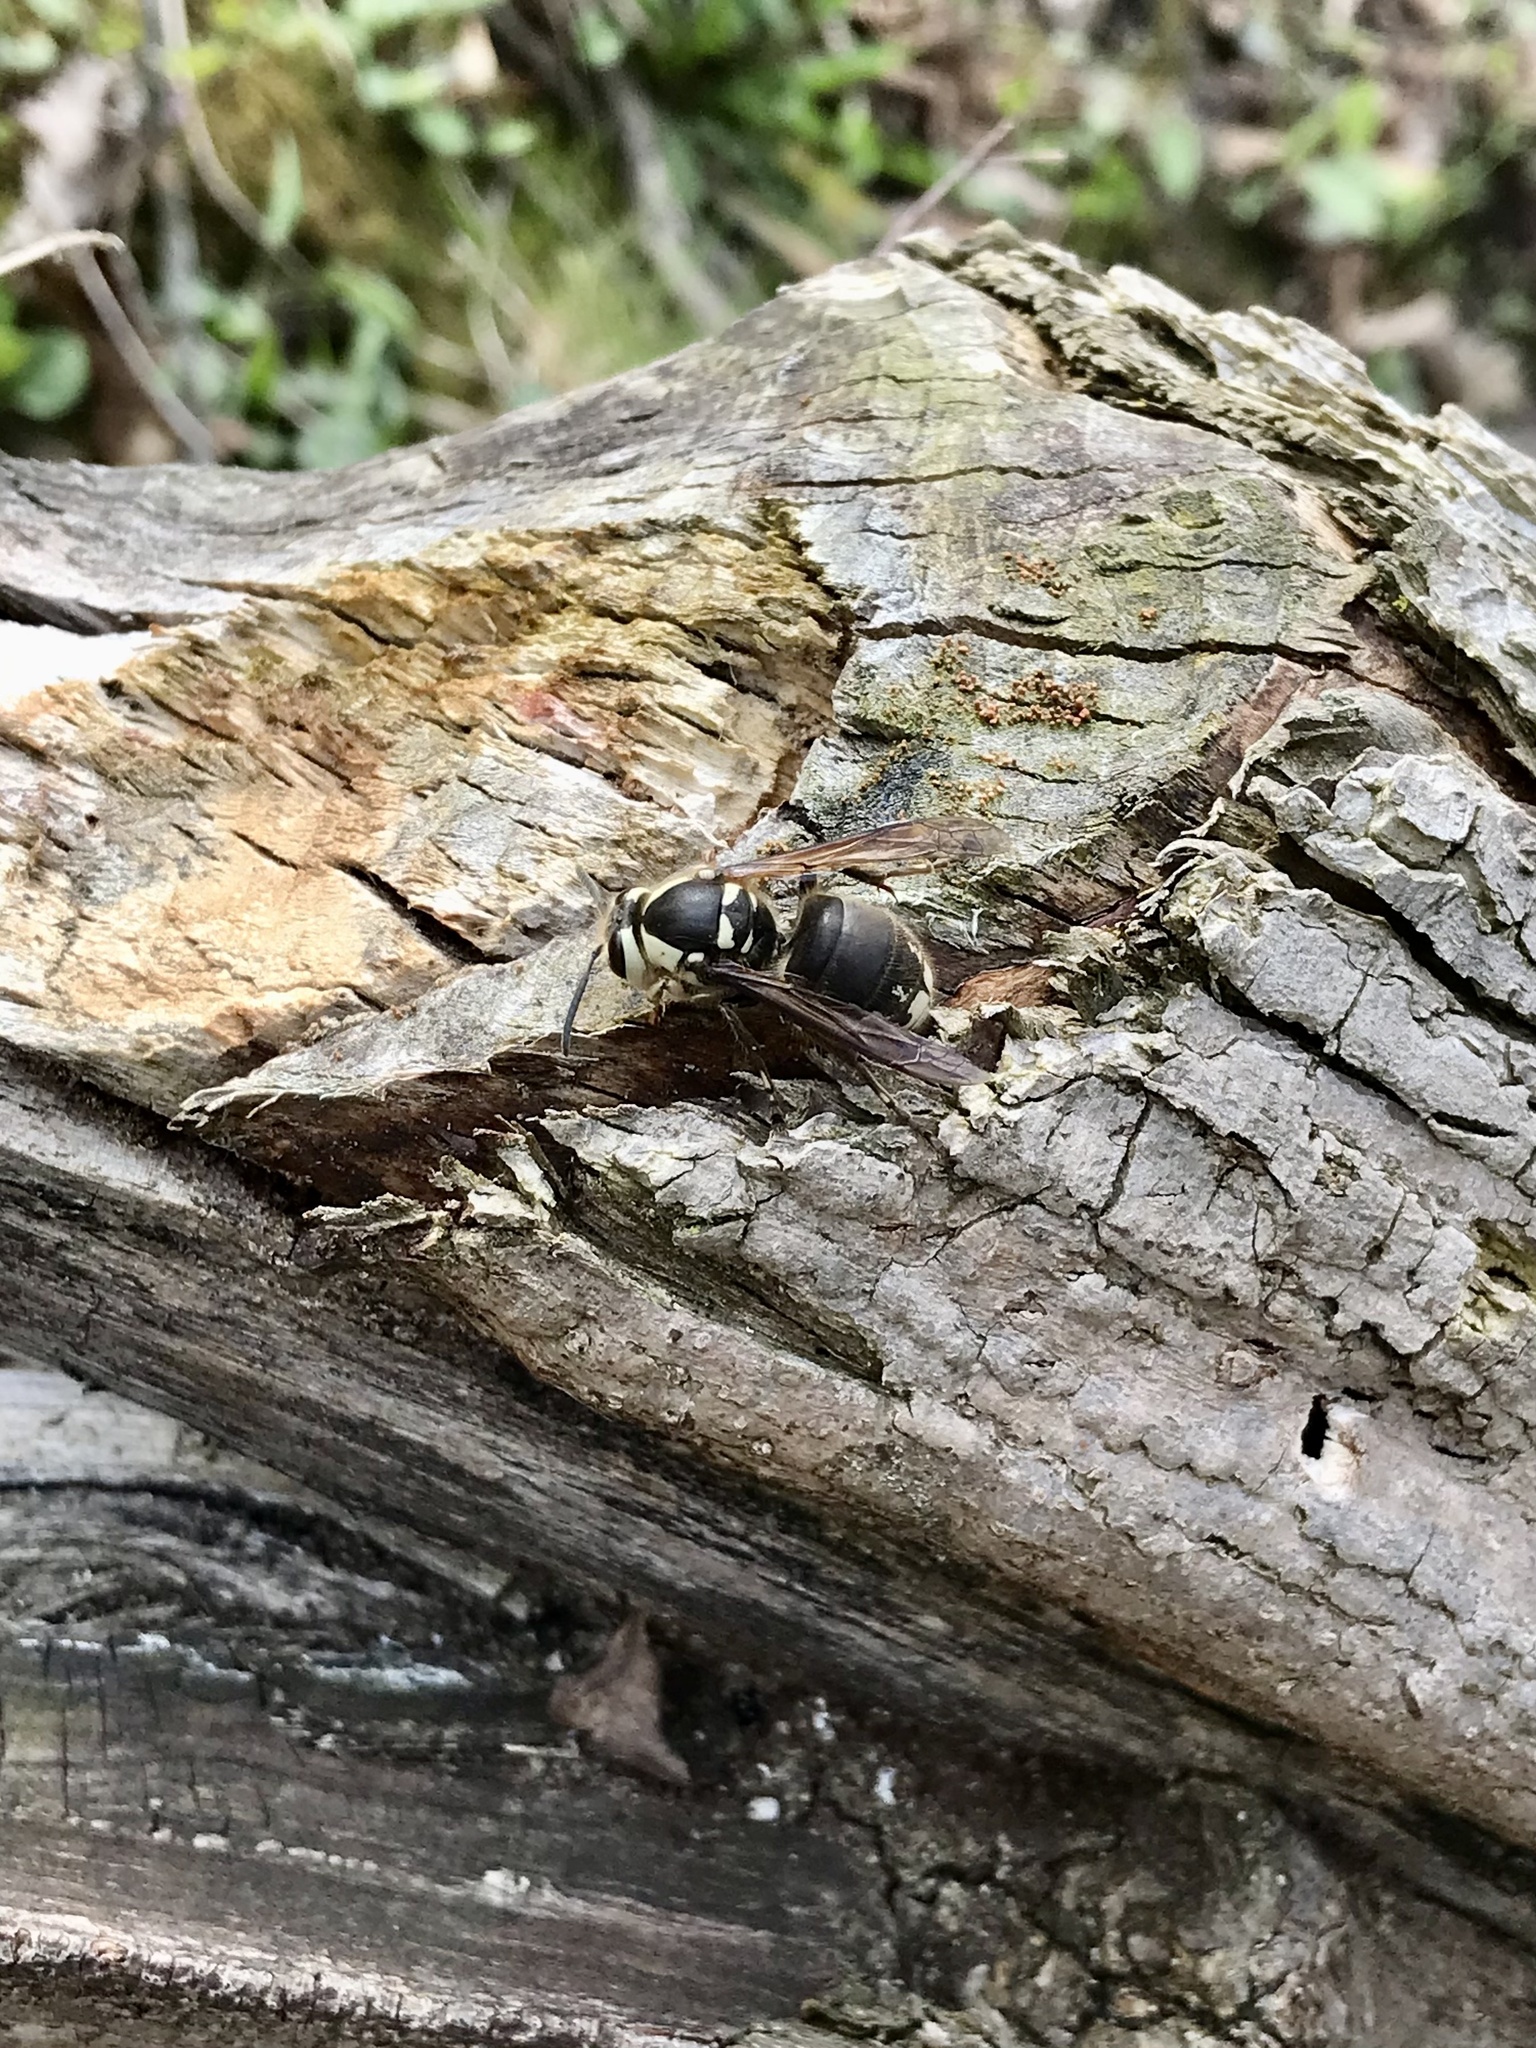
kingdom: Animalia
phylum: Arthropoda
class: Insecta
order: Hymenoptera
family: Vespidae
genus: Dolichovespula
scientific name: Dolichovespula maculata
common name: Bald-faced hornet
